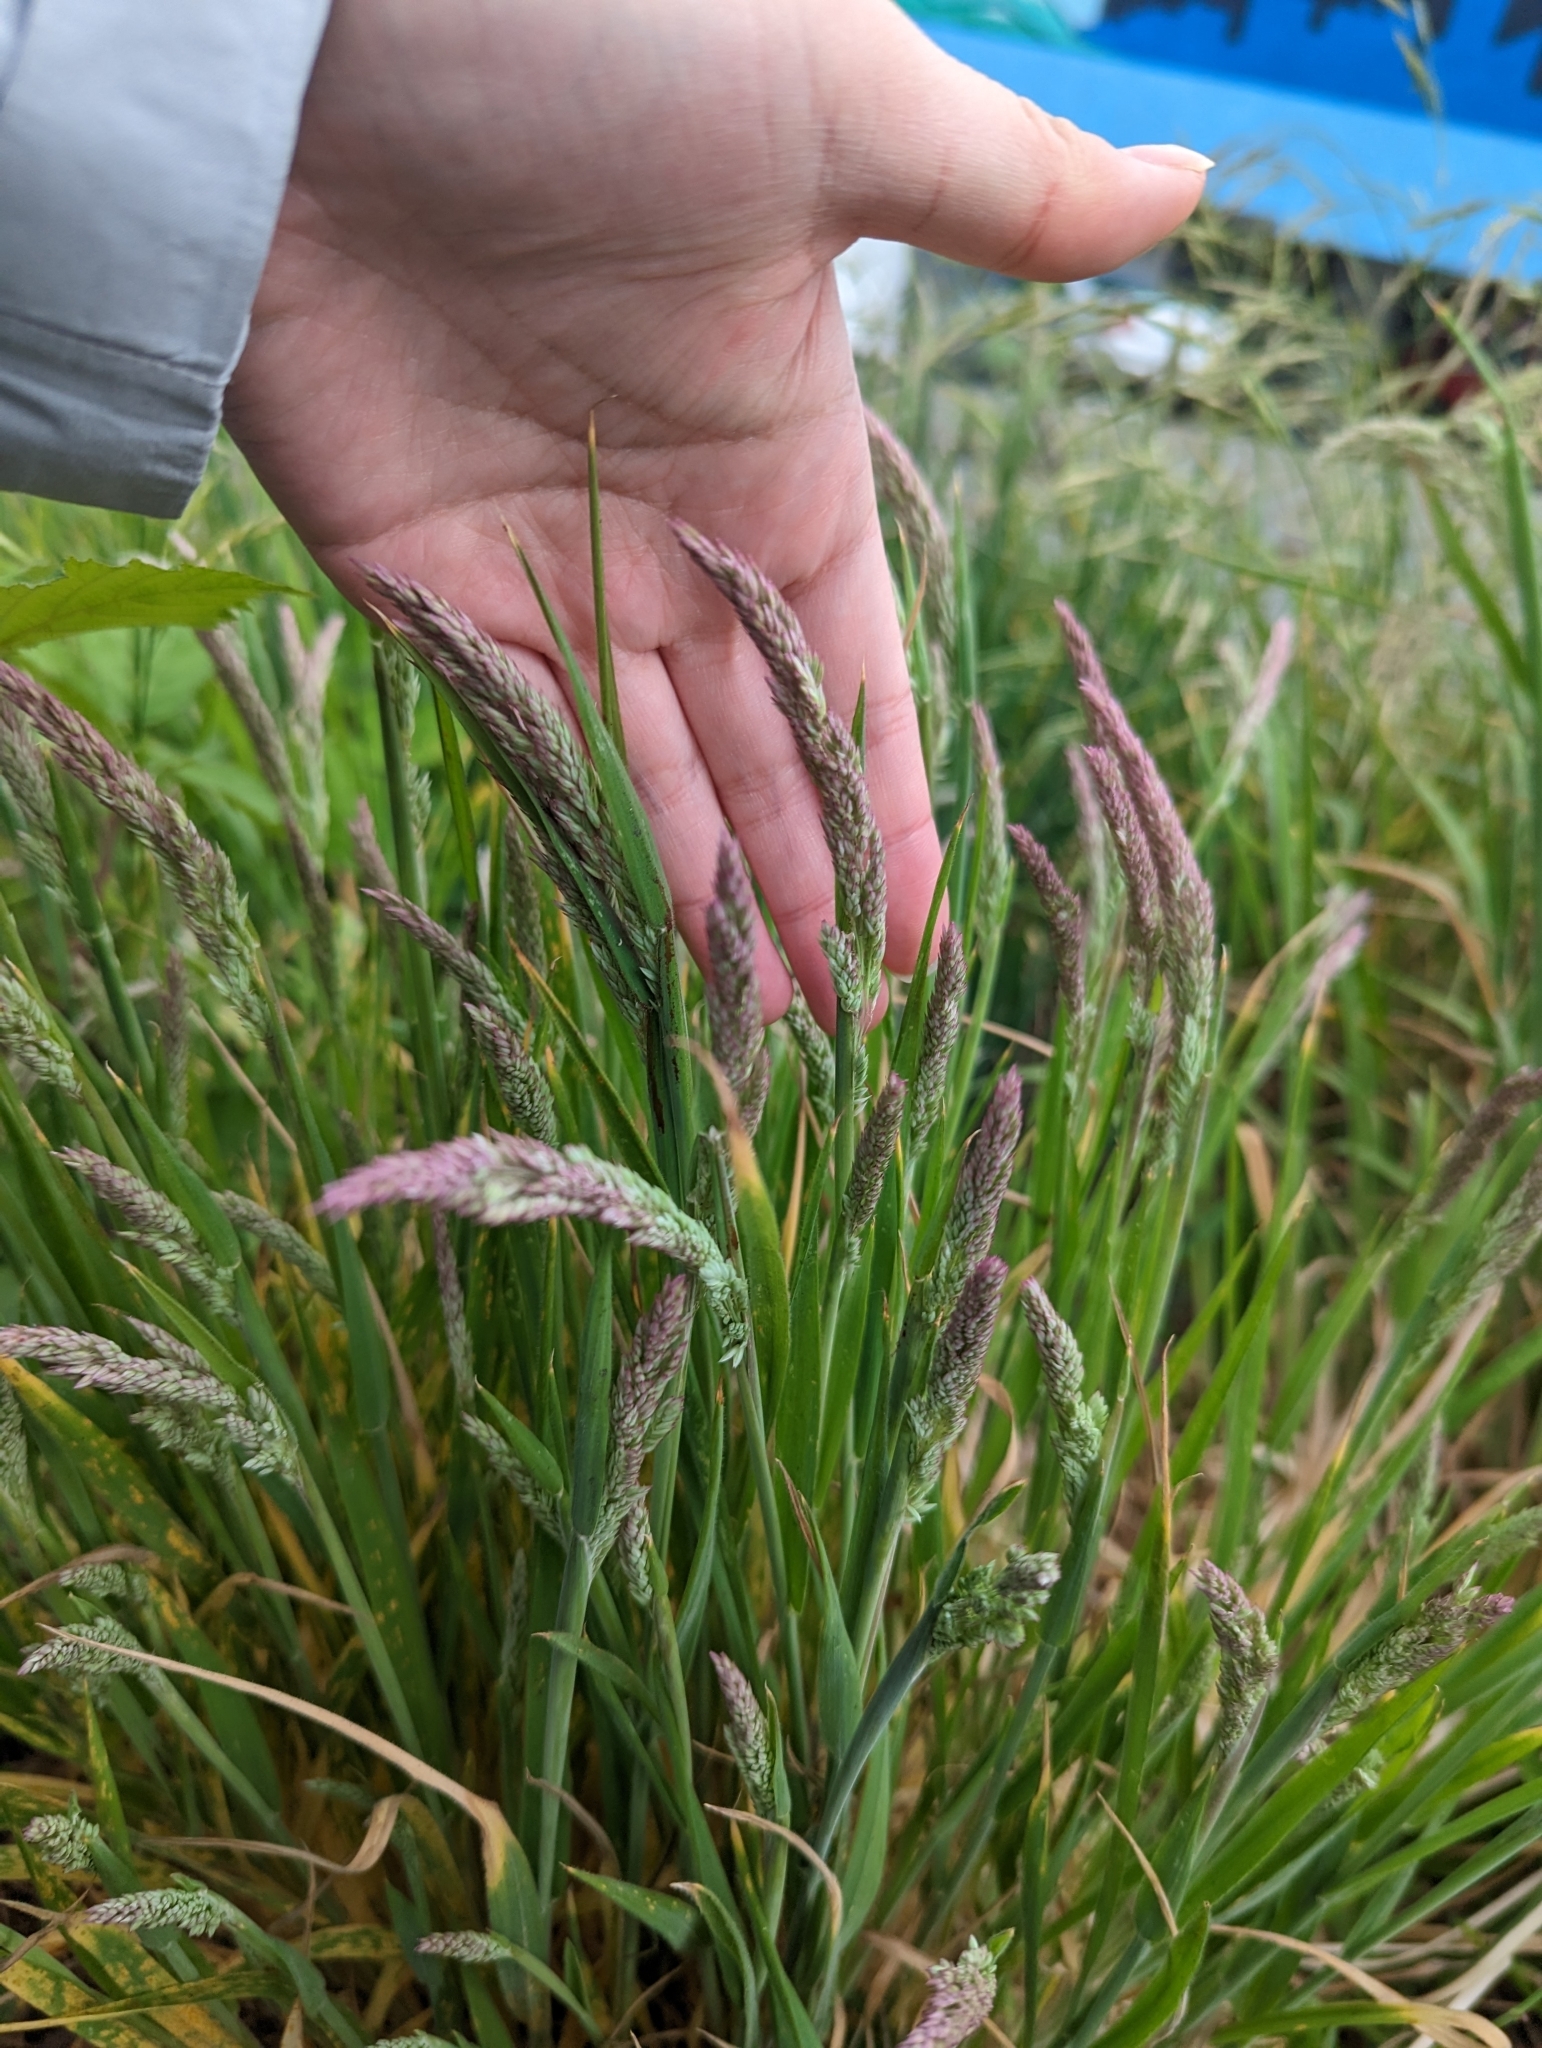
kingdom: Plantae
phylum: Tracheophyta
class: Liliopsida
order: Poales
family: Poaceae
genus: Holcus
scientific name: Holcus lanatus
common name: Yorkshire-fog
